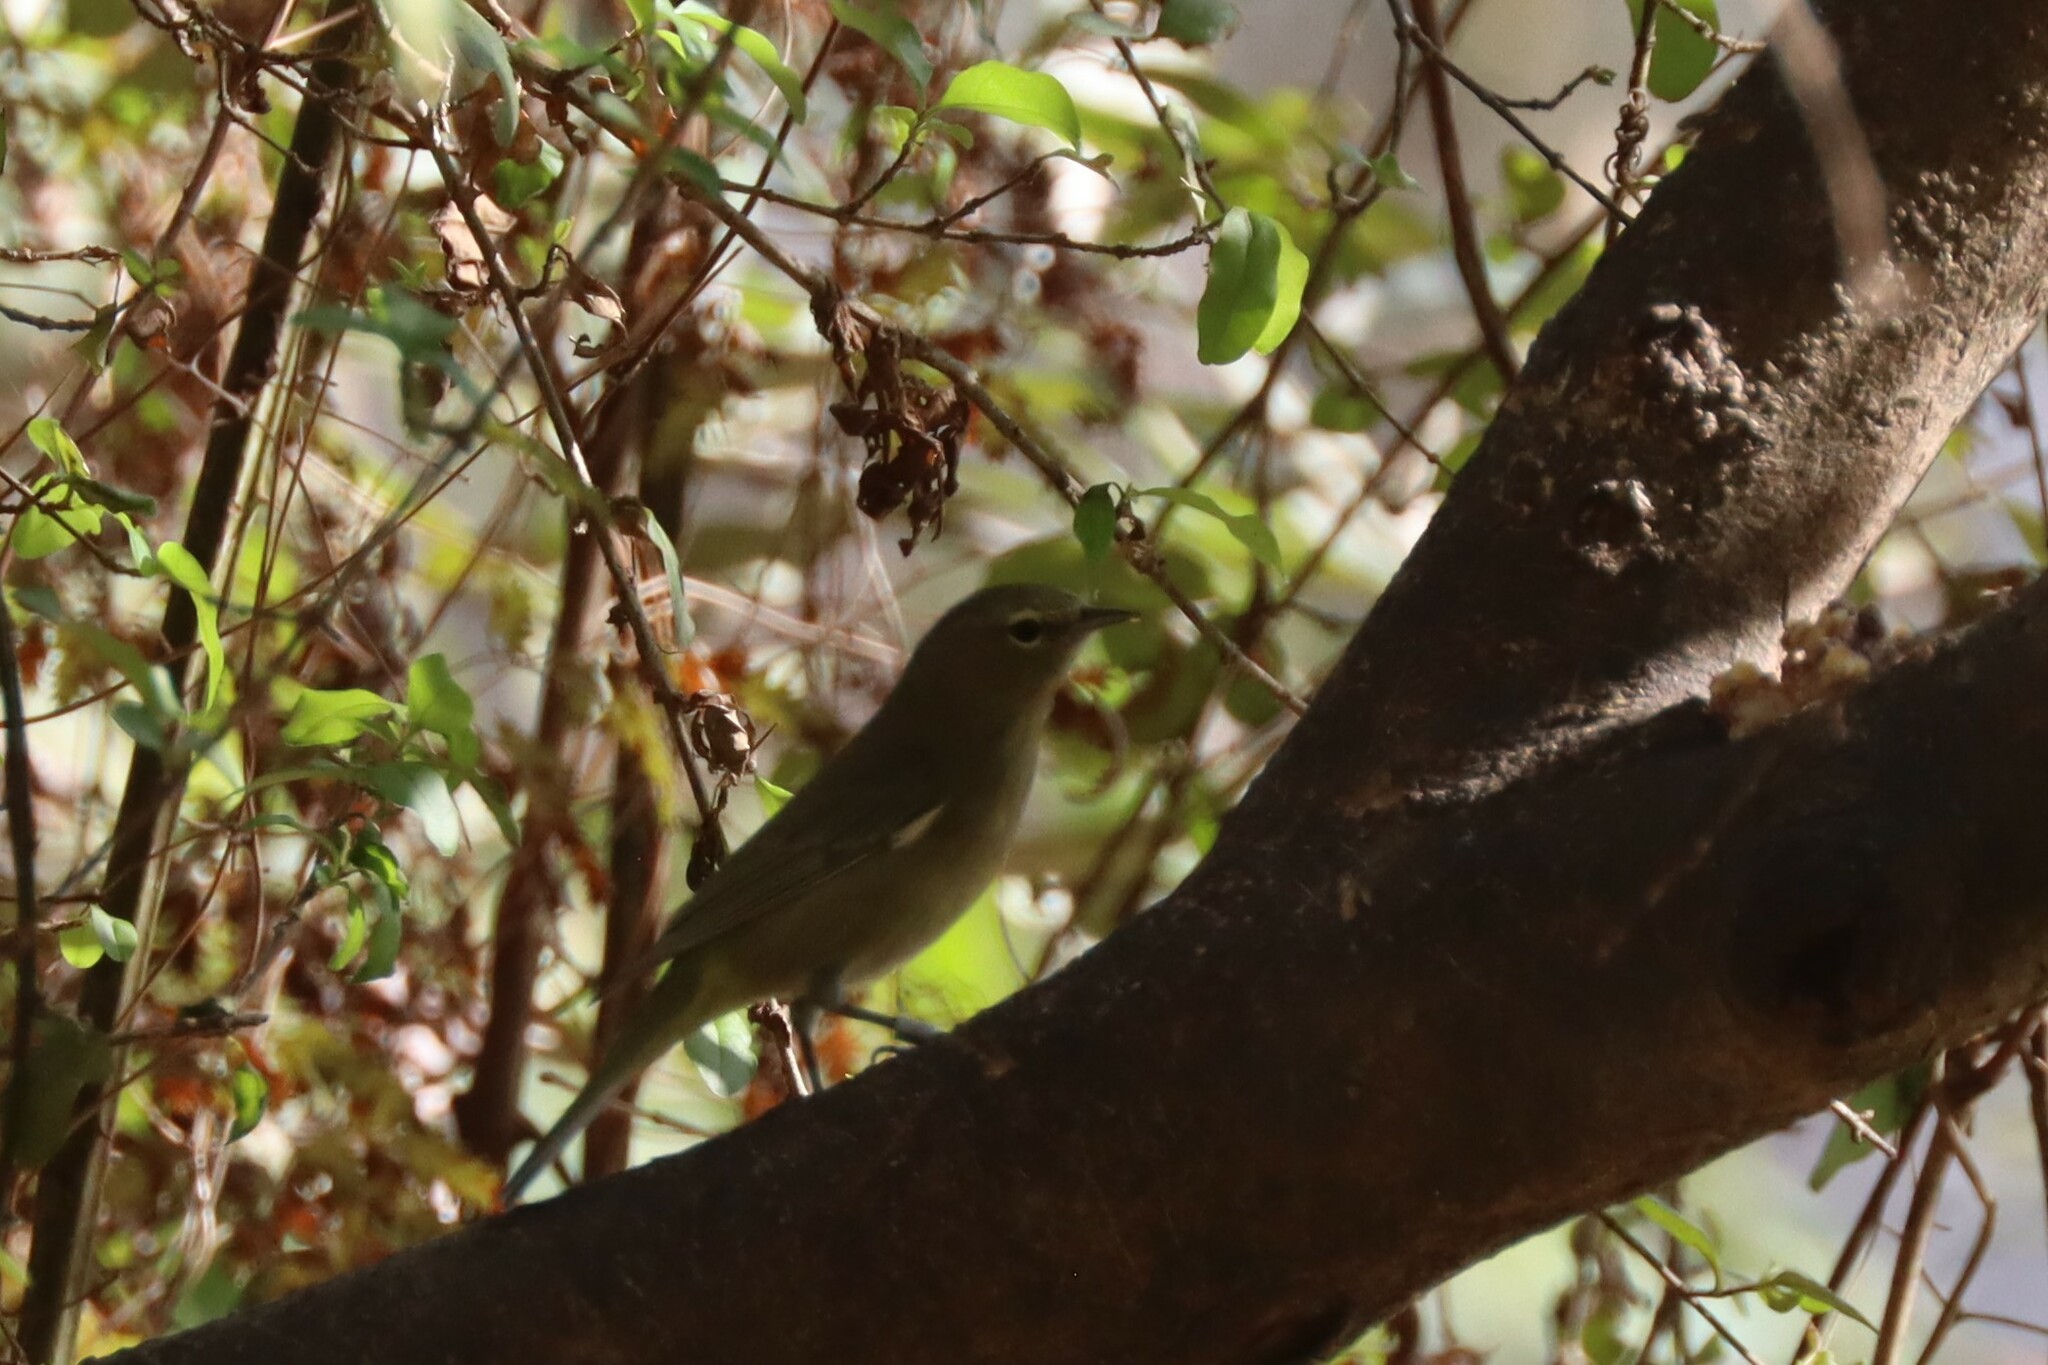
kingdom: Animalia
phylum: Chordata
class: Aves
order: Passeriformes
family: Parulidae
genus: Leiothlypis
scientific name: Leiothlypis celata
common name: Orange-crowned warbler
